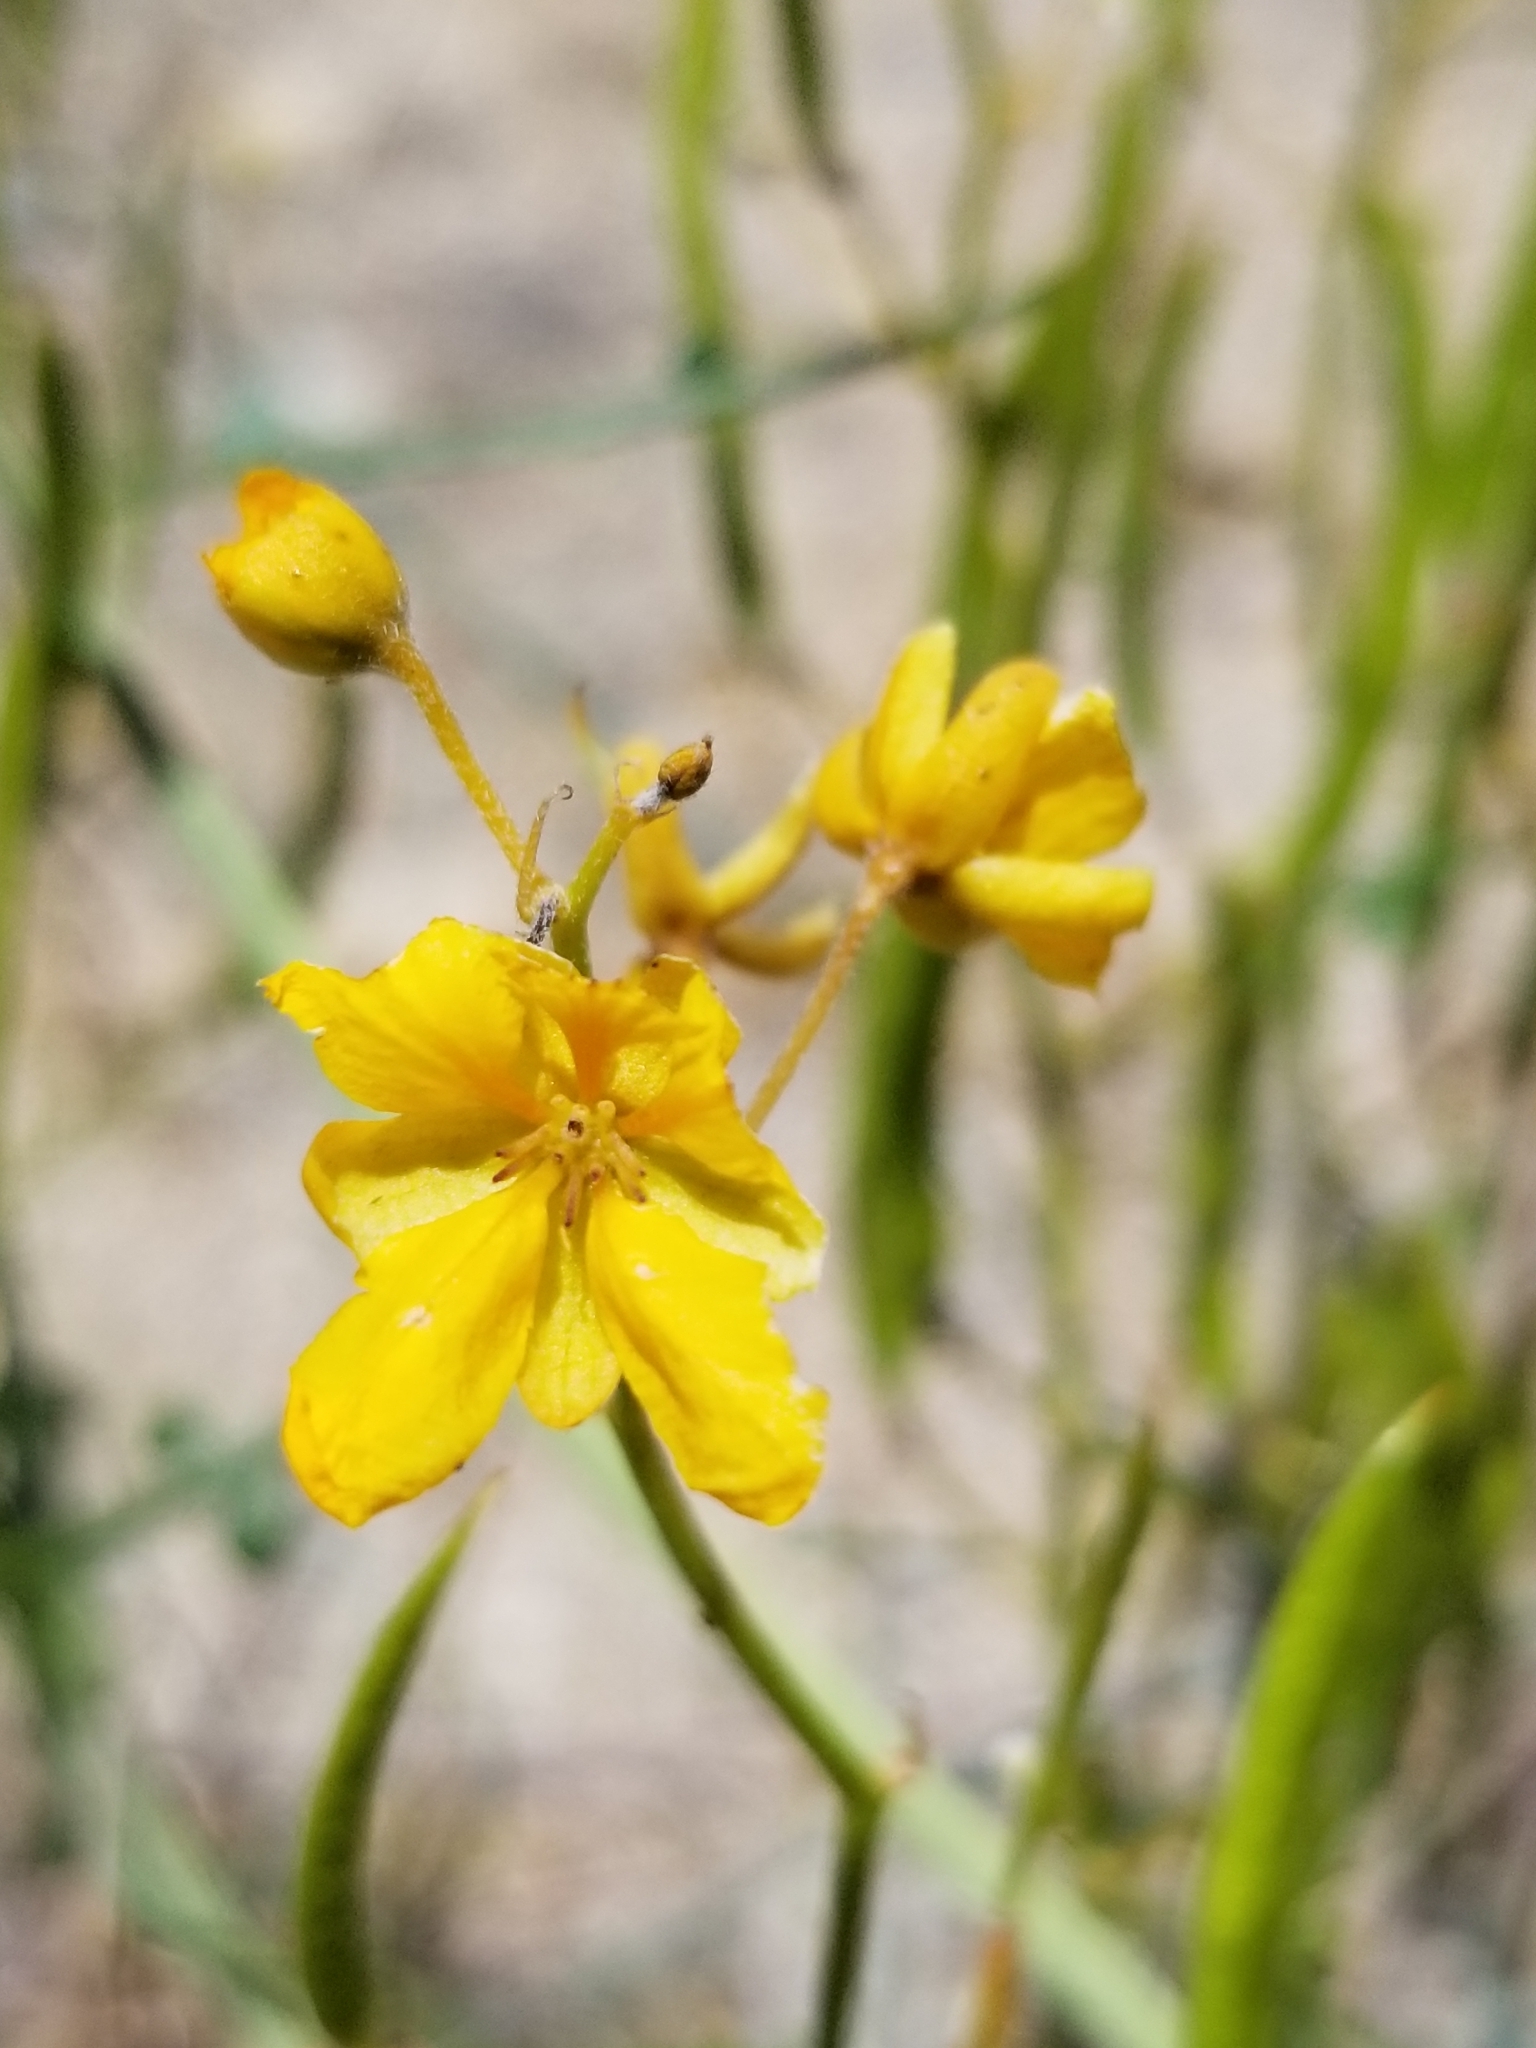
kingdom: Plantae
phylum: Tracheophyta
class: Magnoliopsida
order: Fabales
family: Fabaceae
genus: Senna
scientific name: Senna armata
